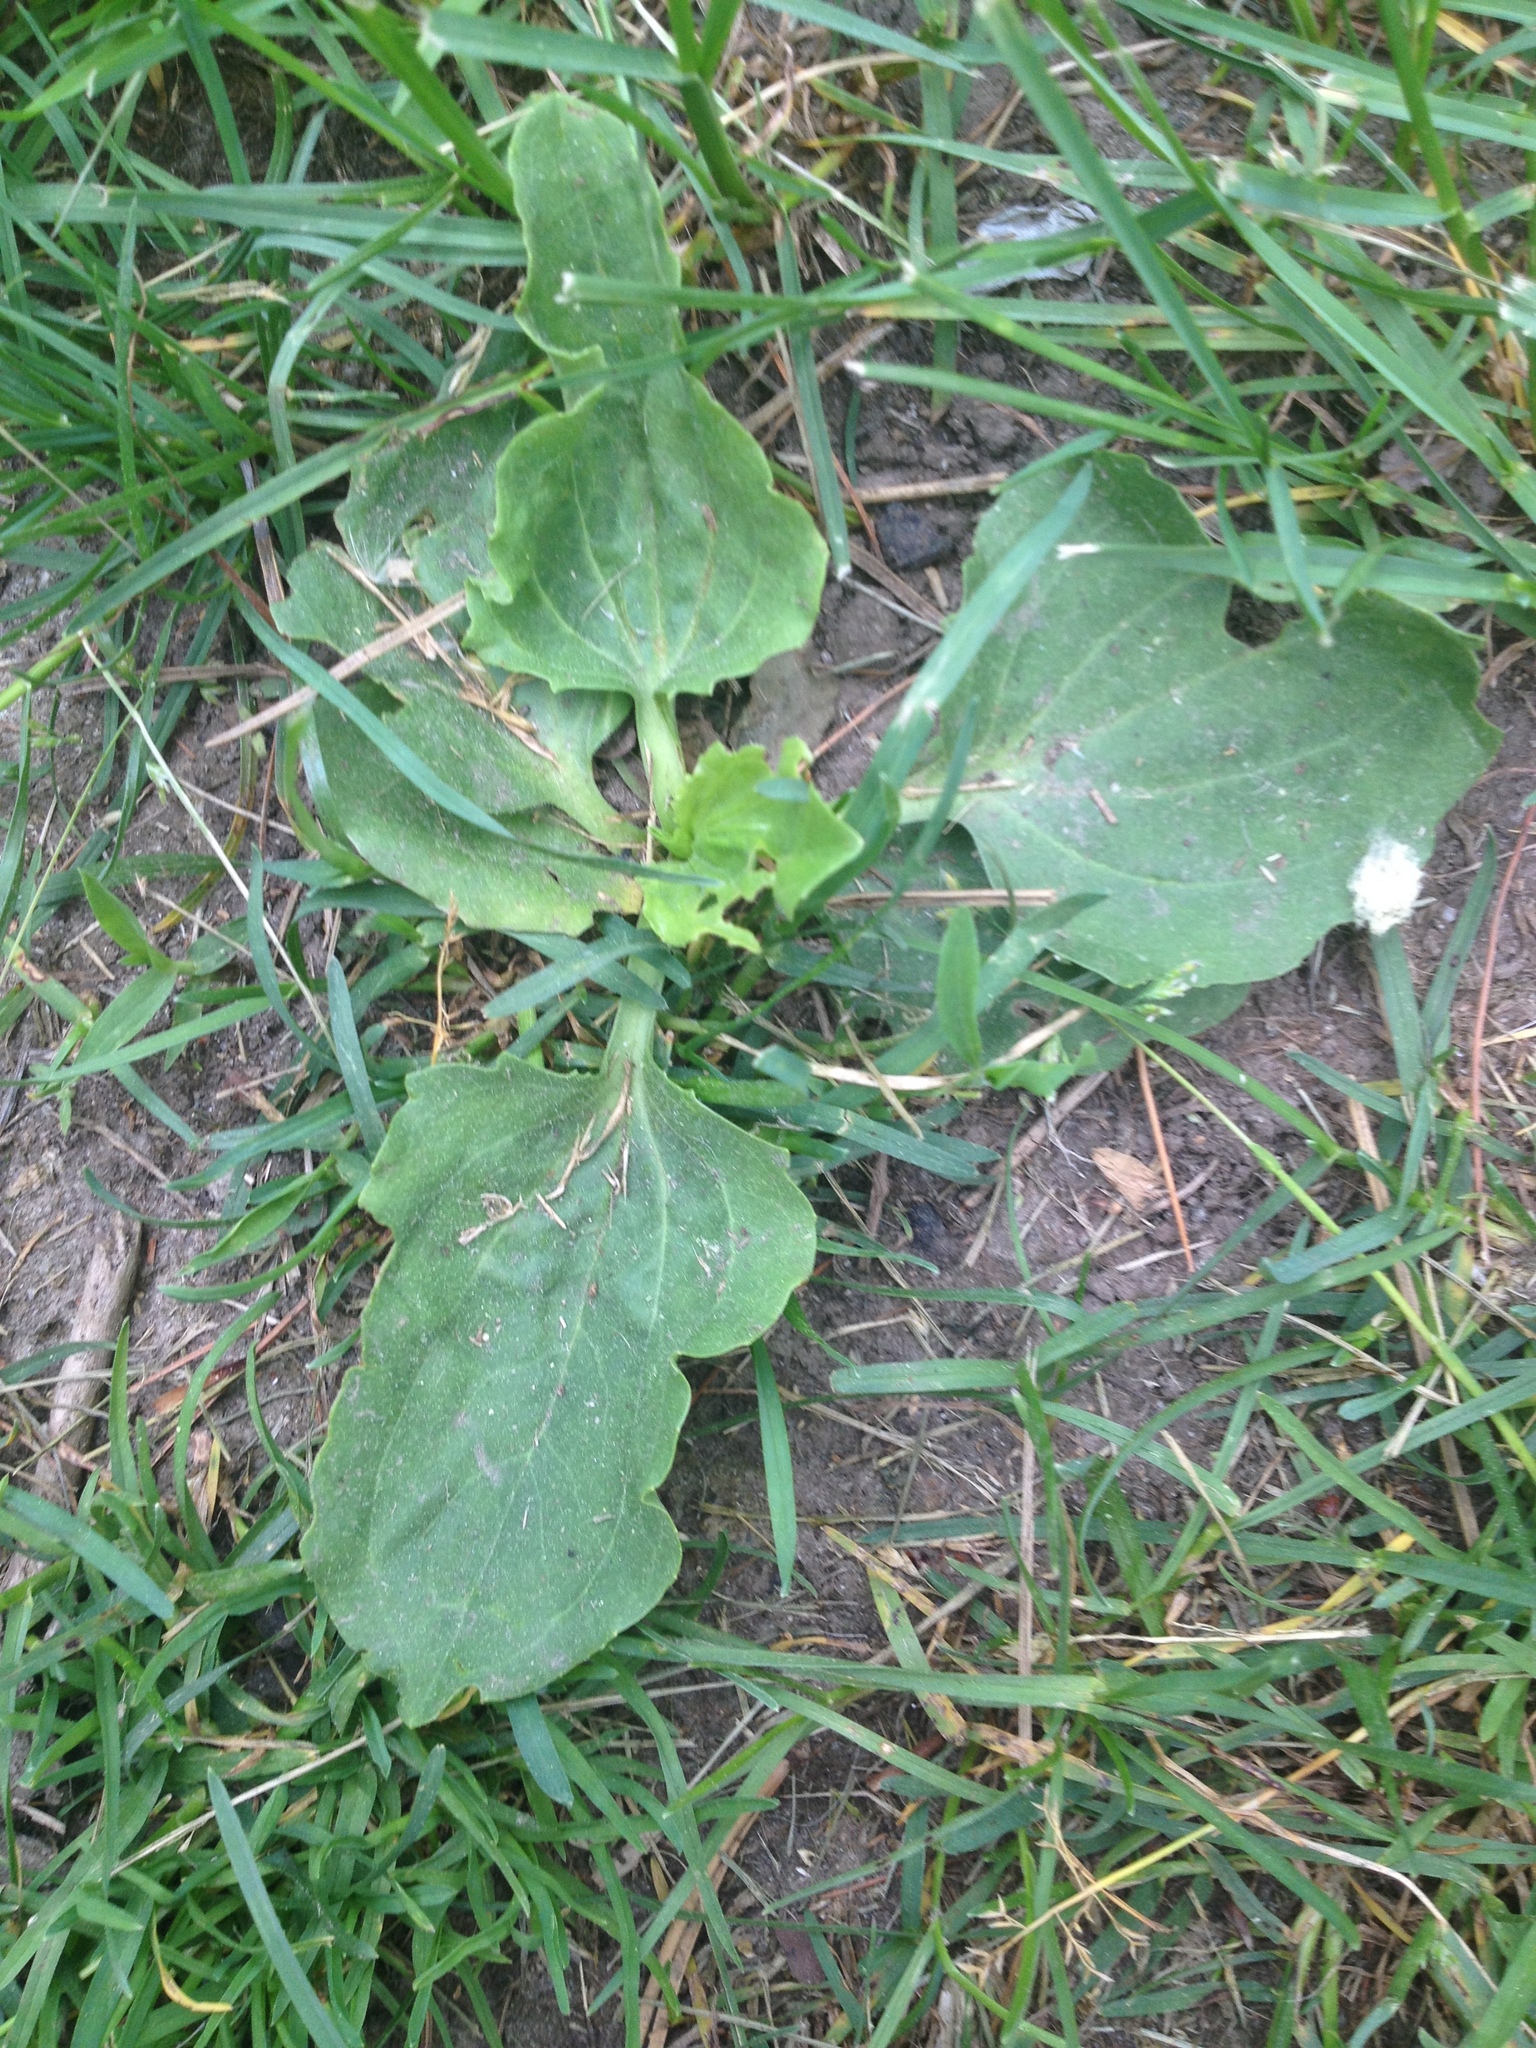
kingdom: Plantae
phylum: Tracheophyta
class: Magnoliopsida
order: Lamiales
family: Plantaginaceae
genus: Plantago
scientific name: Plantago major
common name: Common plantain
